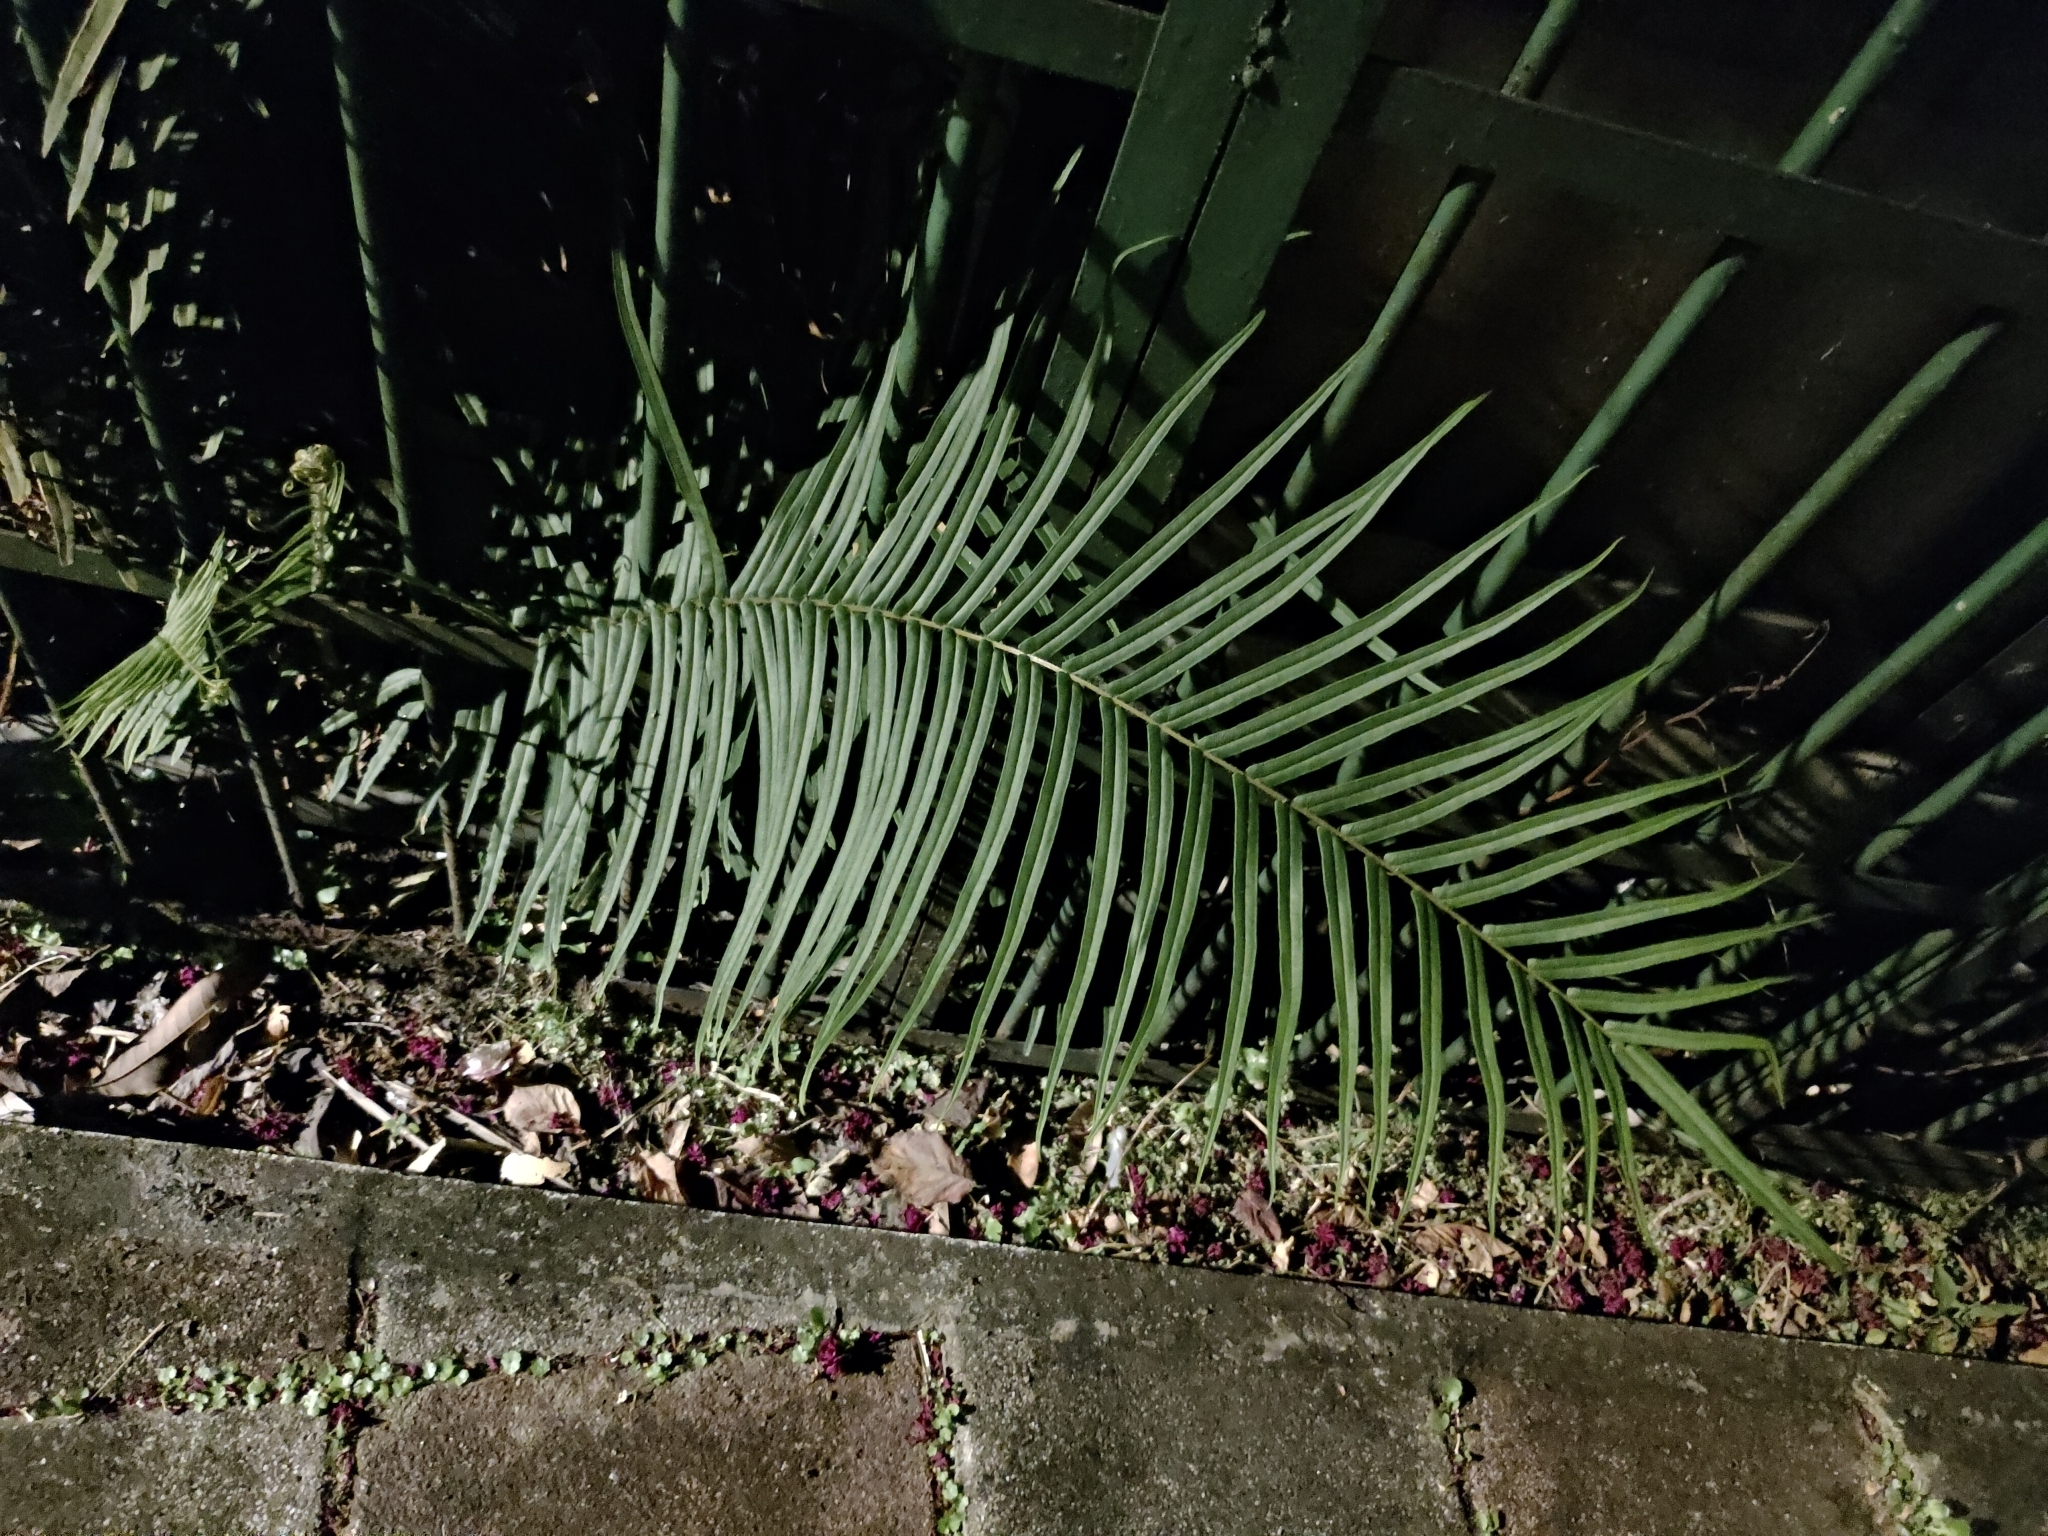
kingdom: Plantae
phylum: Tracheophyta
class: Polypodiopsida
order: Polypodiales
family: Pteridaceae
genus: Pteris
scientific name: Pteris vittata
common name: Ladder brake
